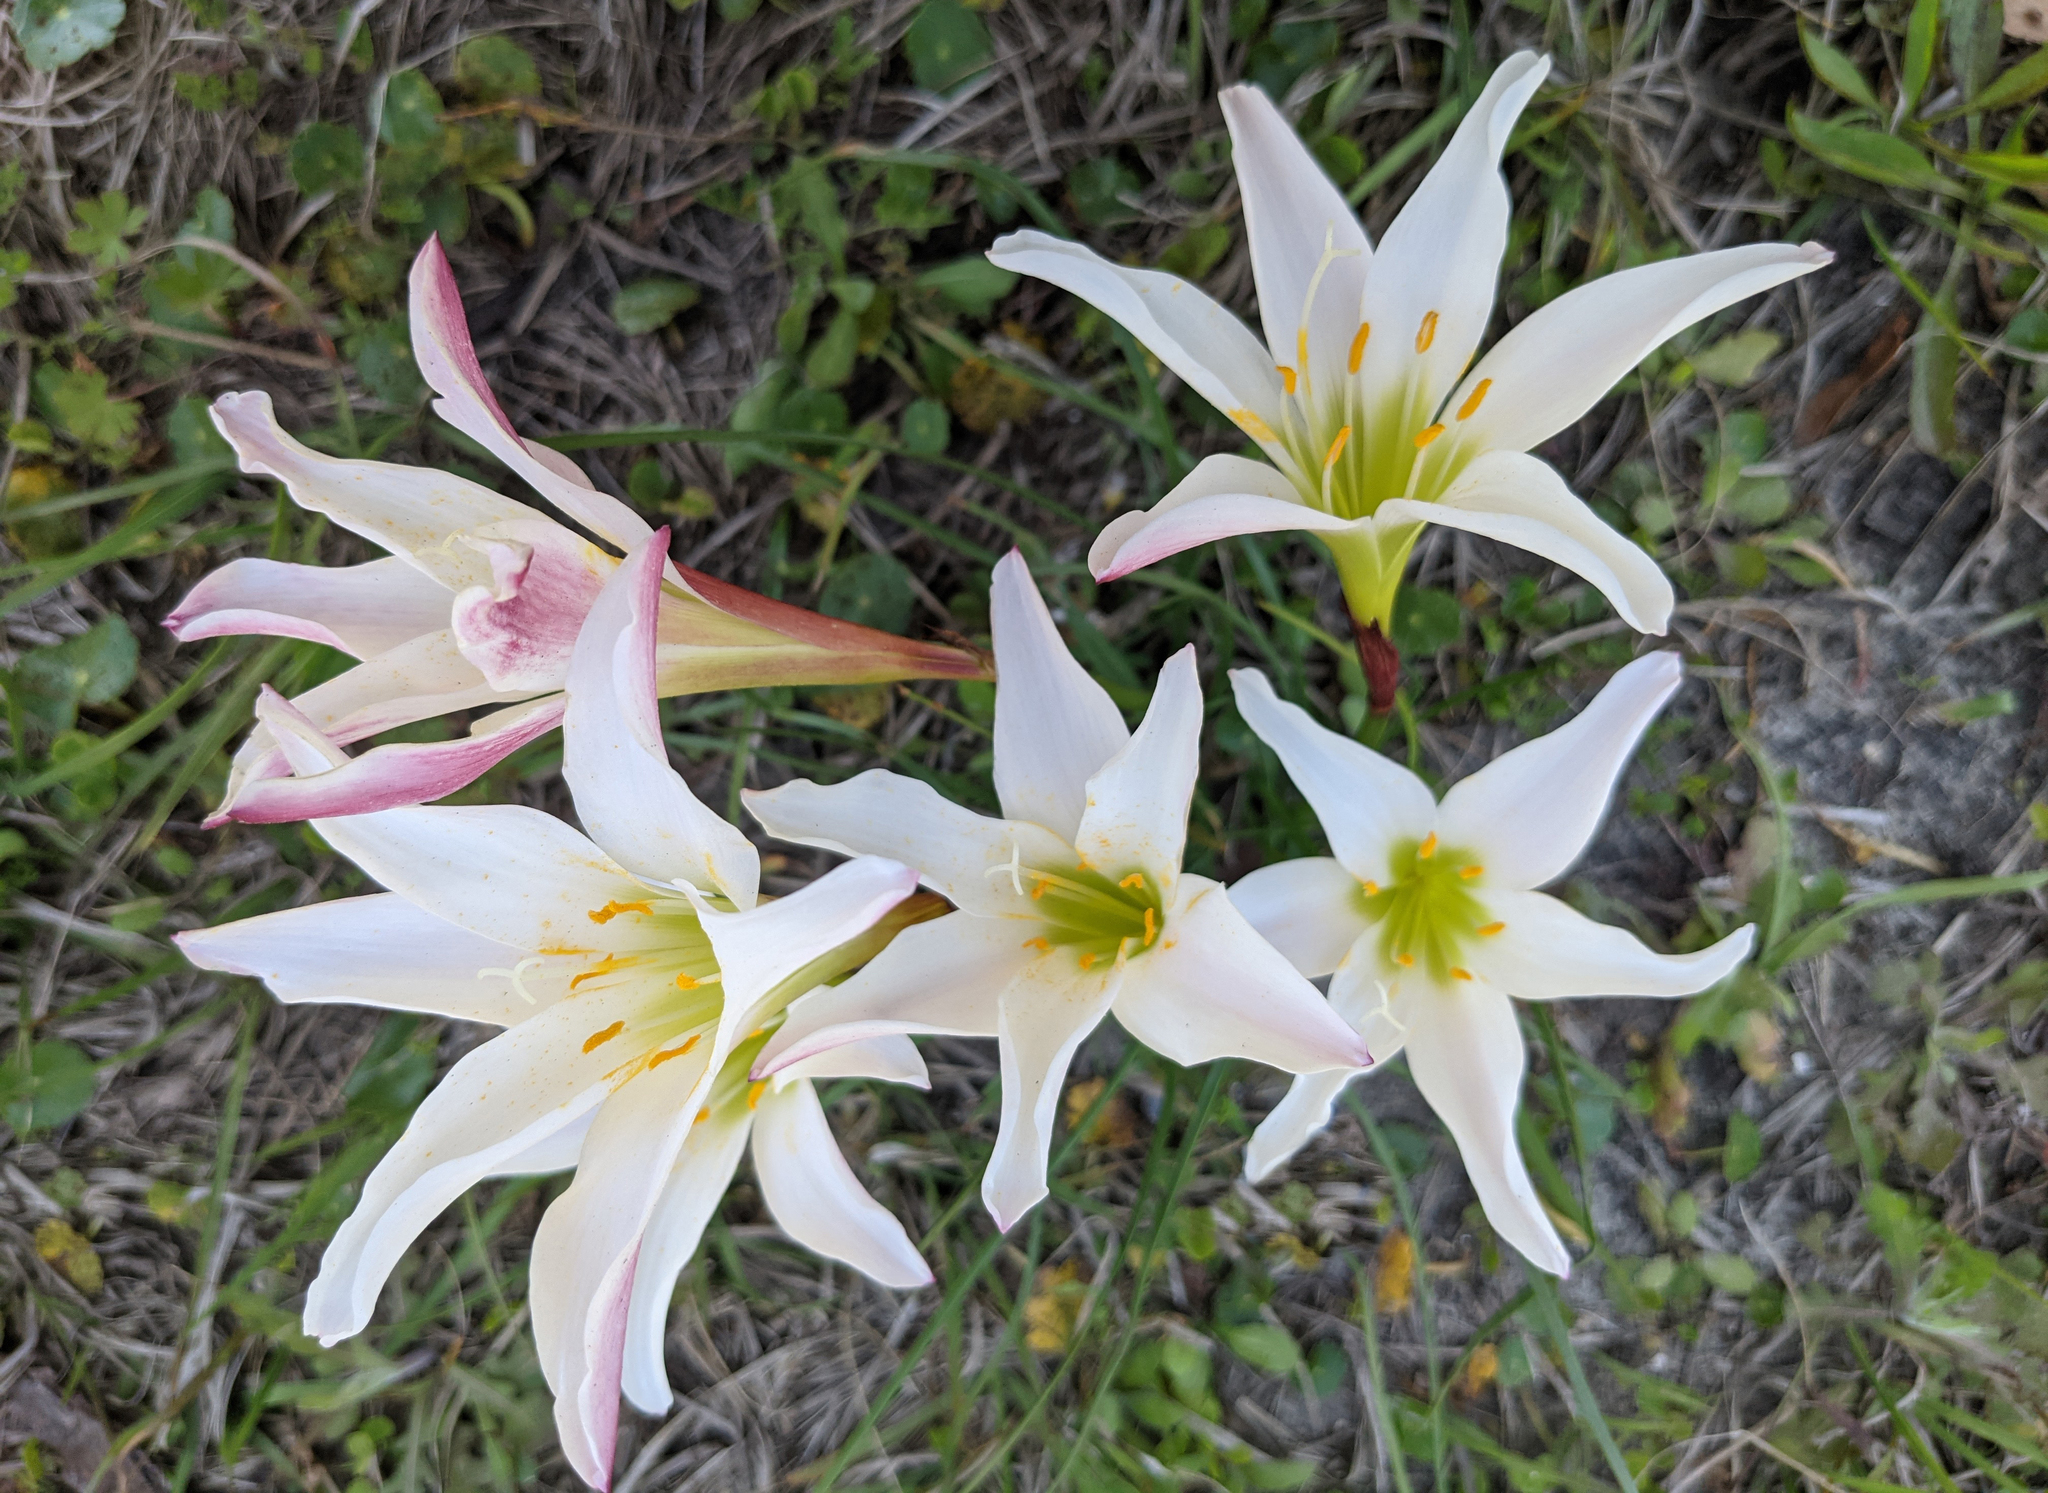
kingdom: Plantae
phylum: Tracheophyta
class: Liliopsida
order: Asparagales
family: Amaryllidaceae
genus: Zephyranthes
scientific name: Zephyranthes atamasco
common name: Atamasco lily
